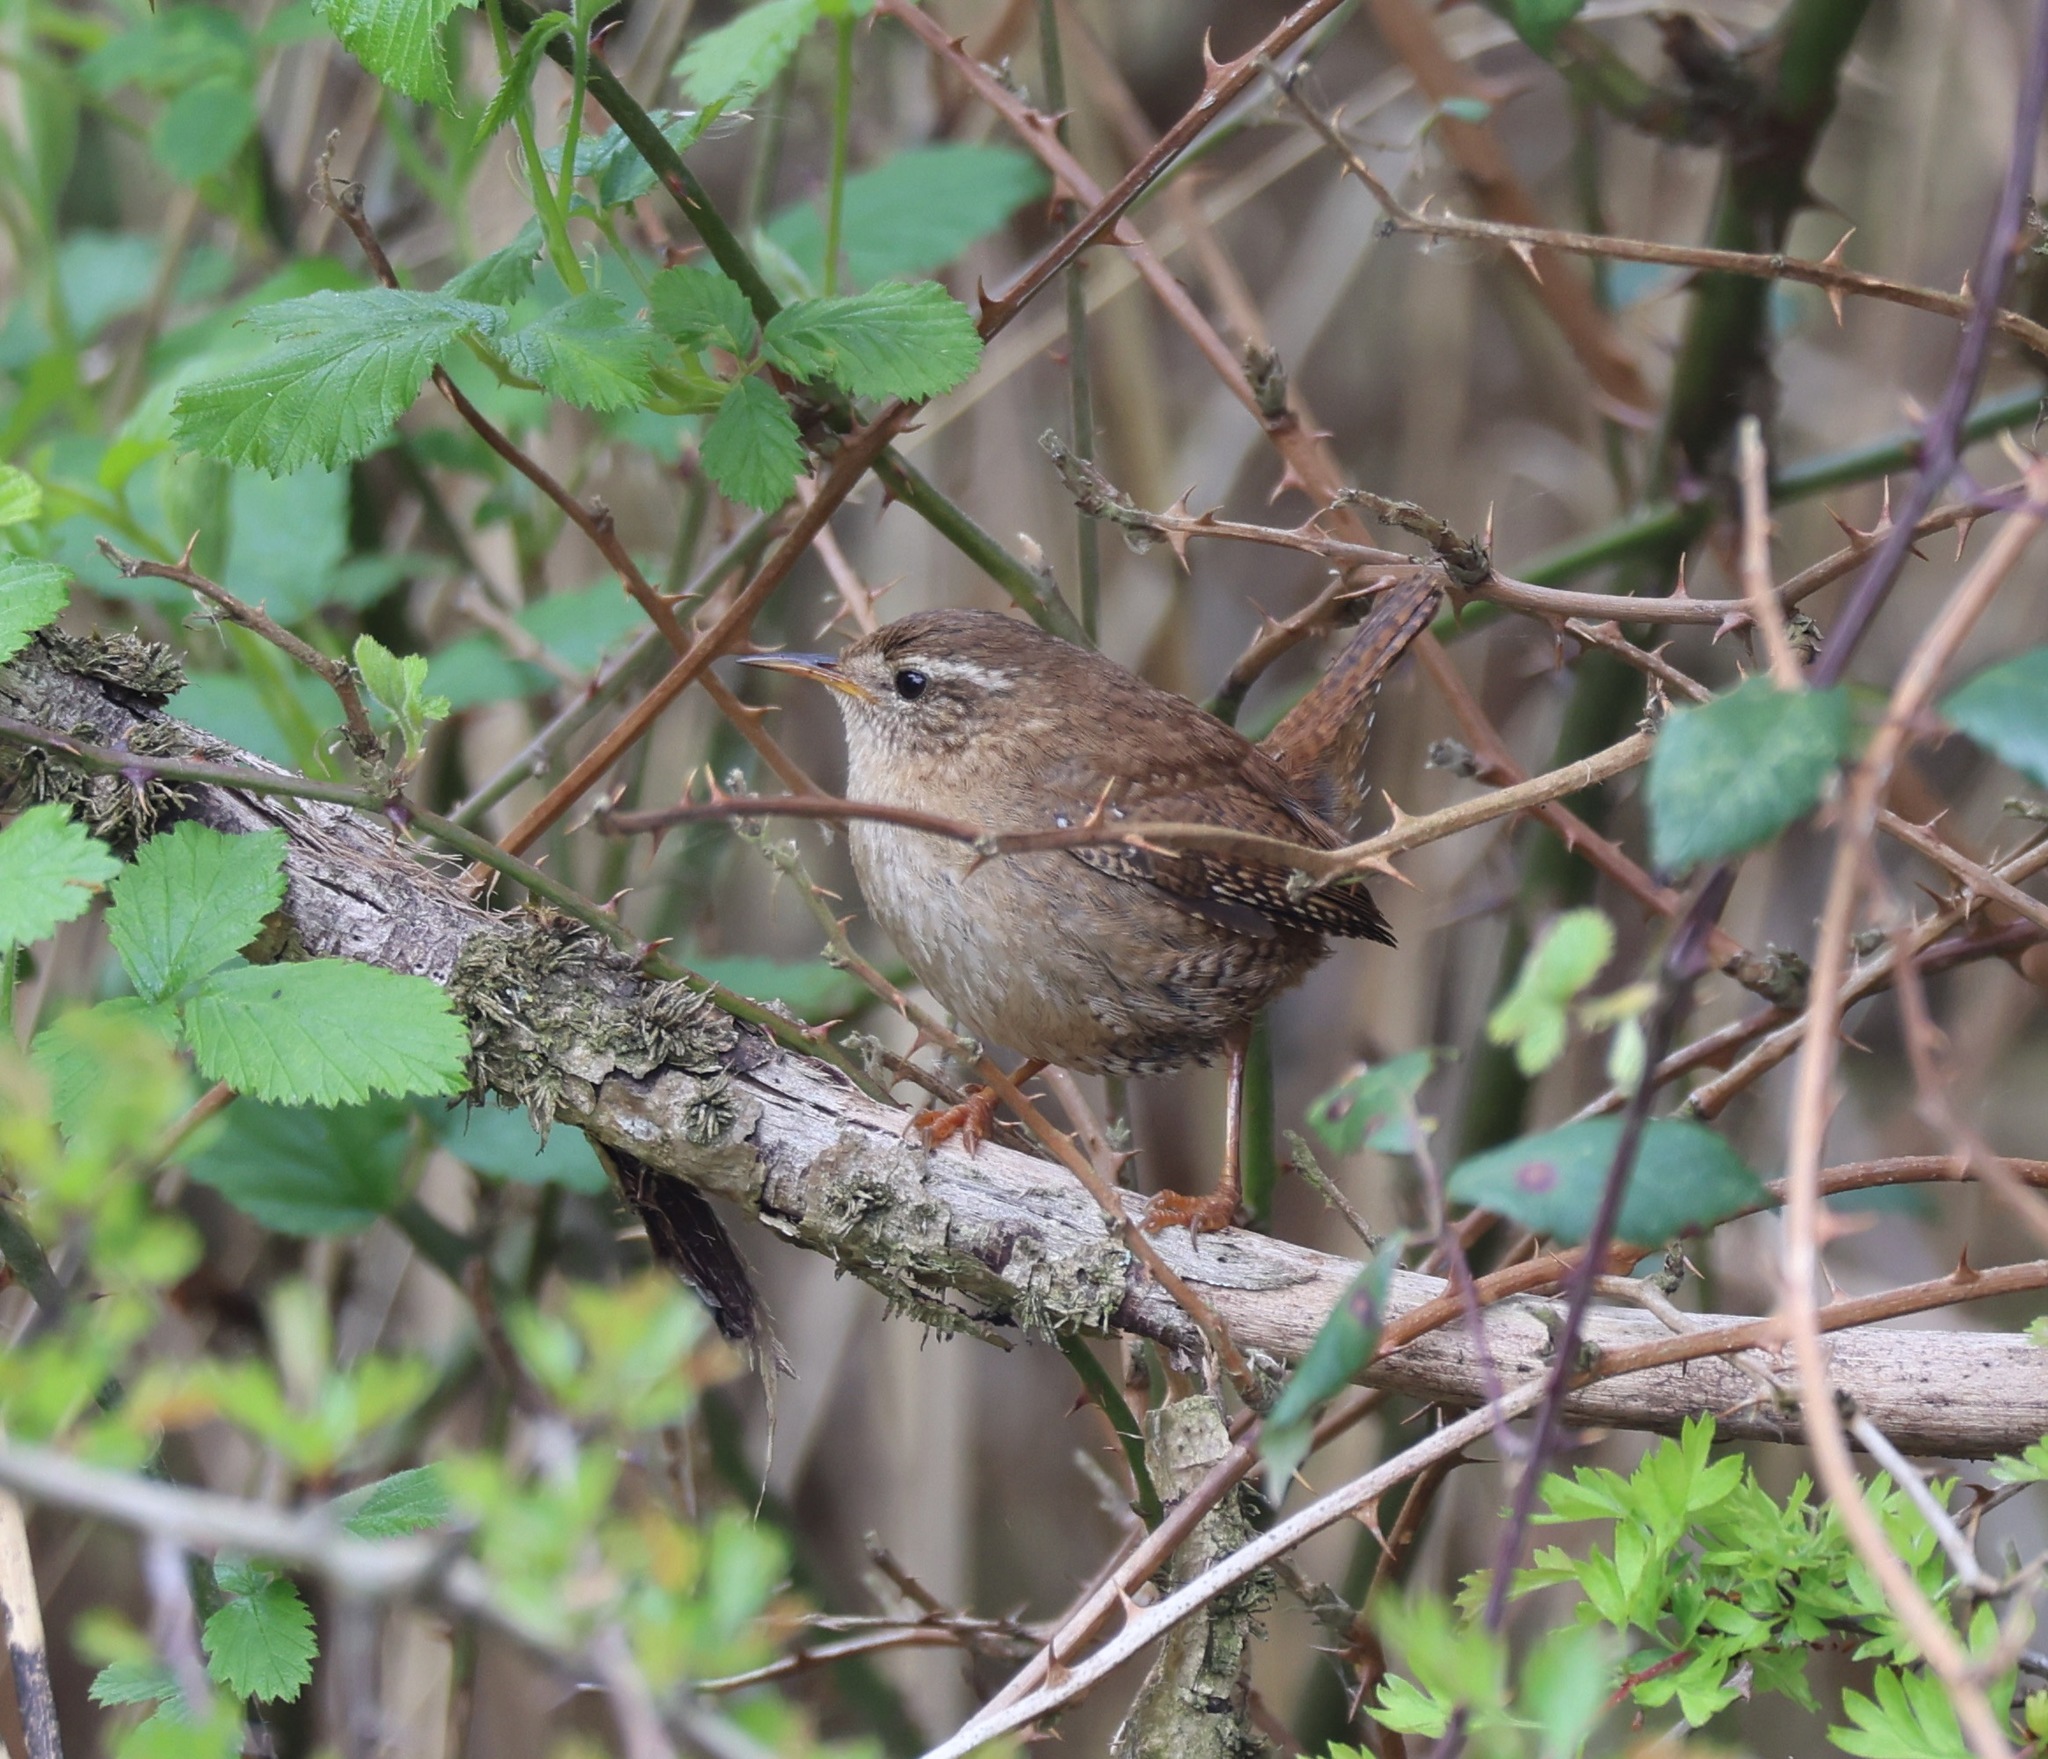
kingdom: Animalia
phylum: Chordata
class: Aves
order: Passeriformes
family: Troglodytidae
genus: Troglodytes
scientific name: Troglodytes troglodytes
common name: Eurasian wren
